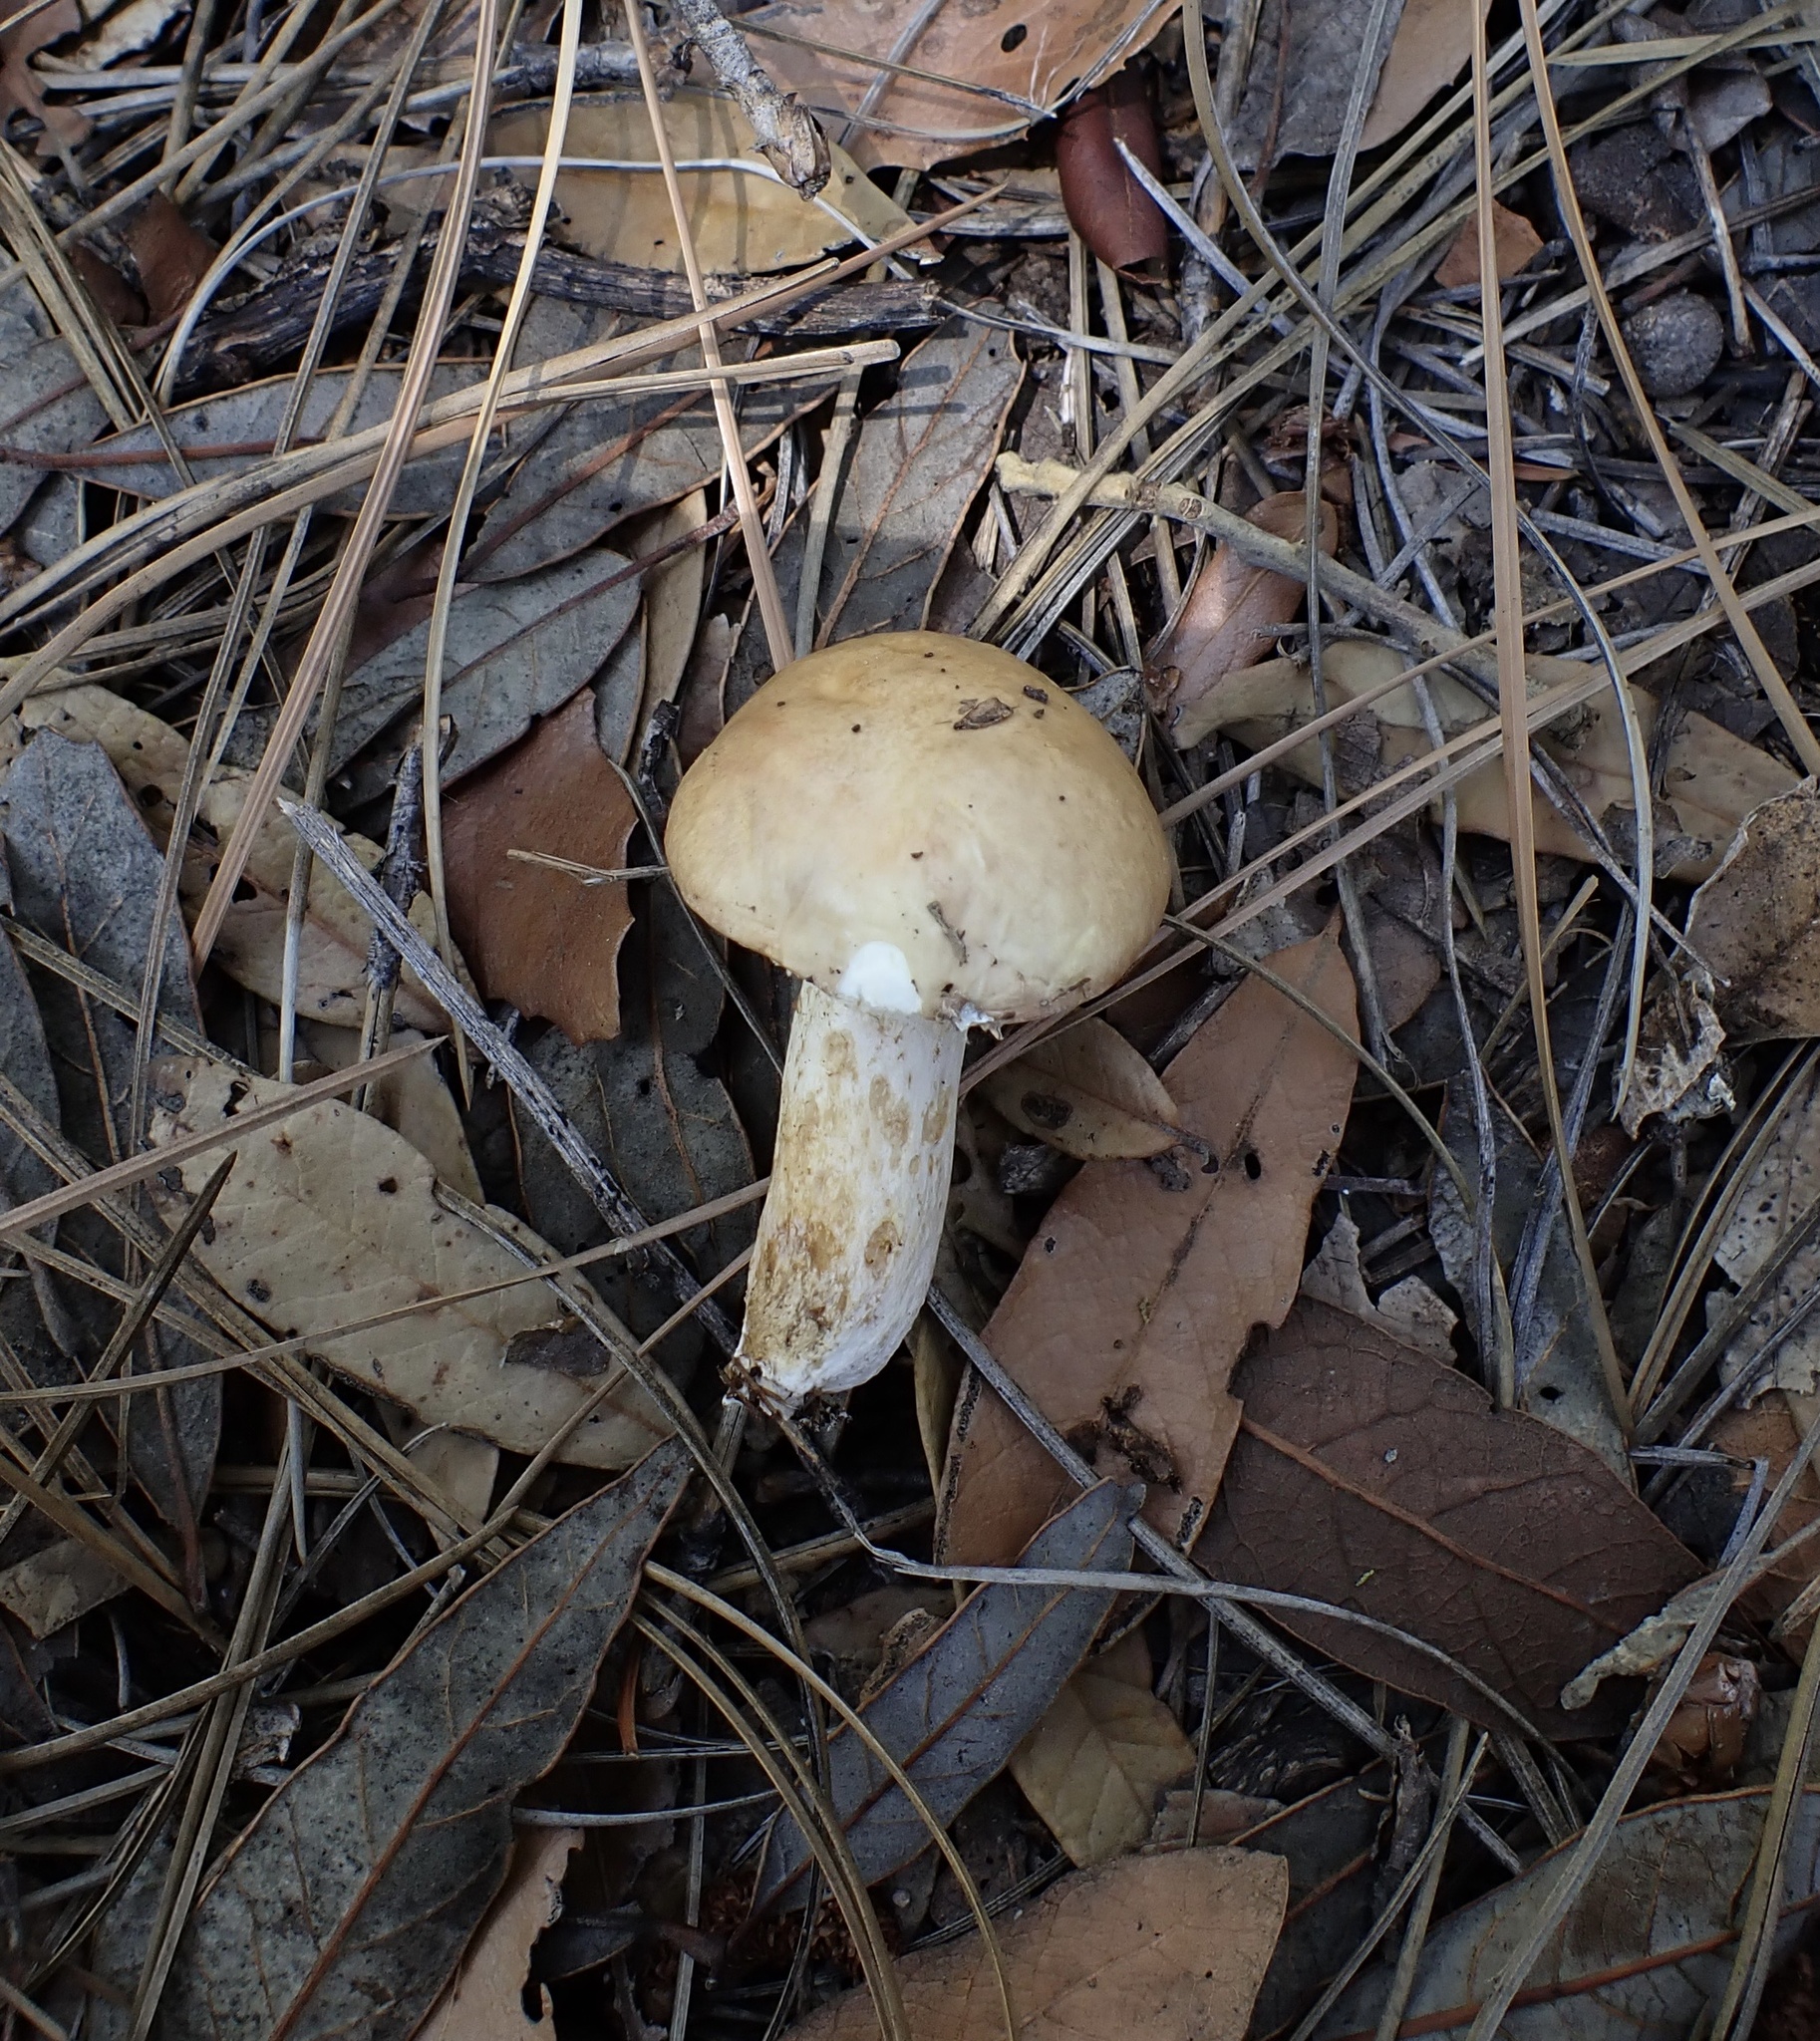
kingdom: Fungi
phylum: Basidiomycota
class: Agaricomycetes
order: Boletales
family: Suillaceae
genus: Suillus
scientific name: Suillus occidentalis
